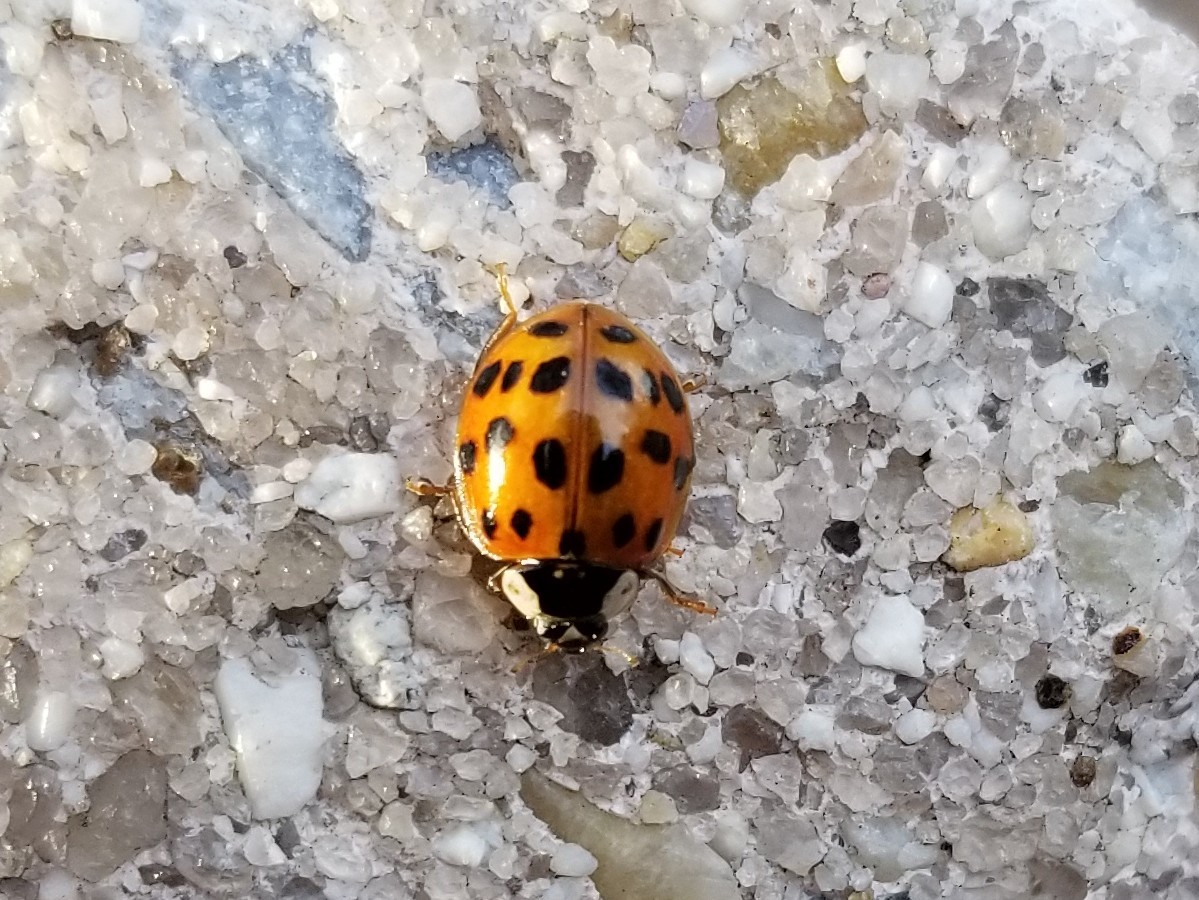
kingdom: Animalia
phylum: Arthropoda
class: Insecta
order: Coleoptera
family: Coccinellidae
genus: Harmonia
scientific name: Harmonia axyridis
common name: Harlequin ladybird
